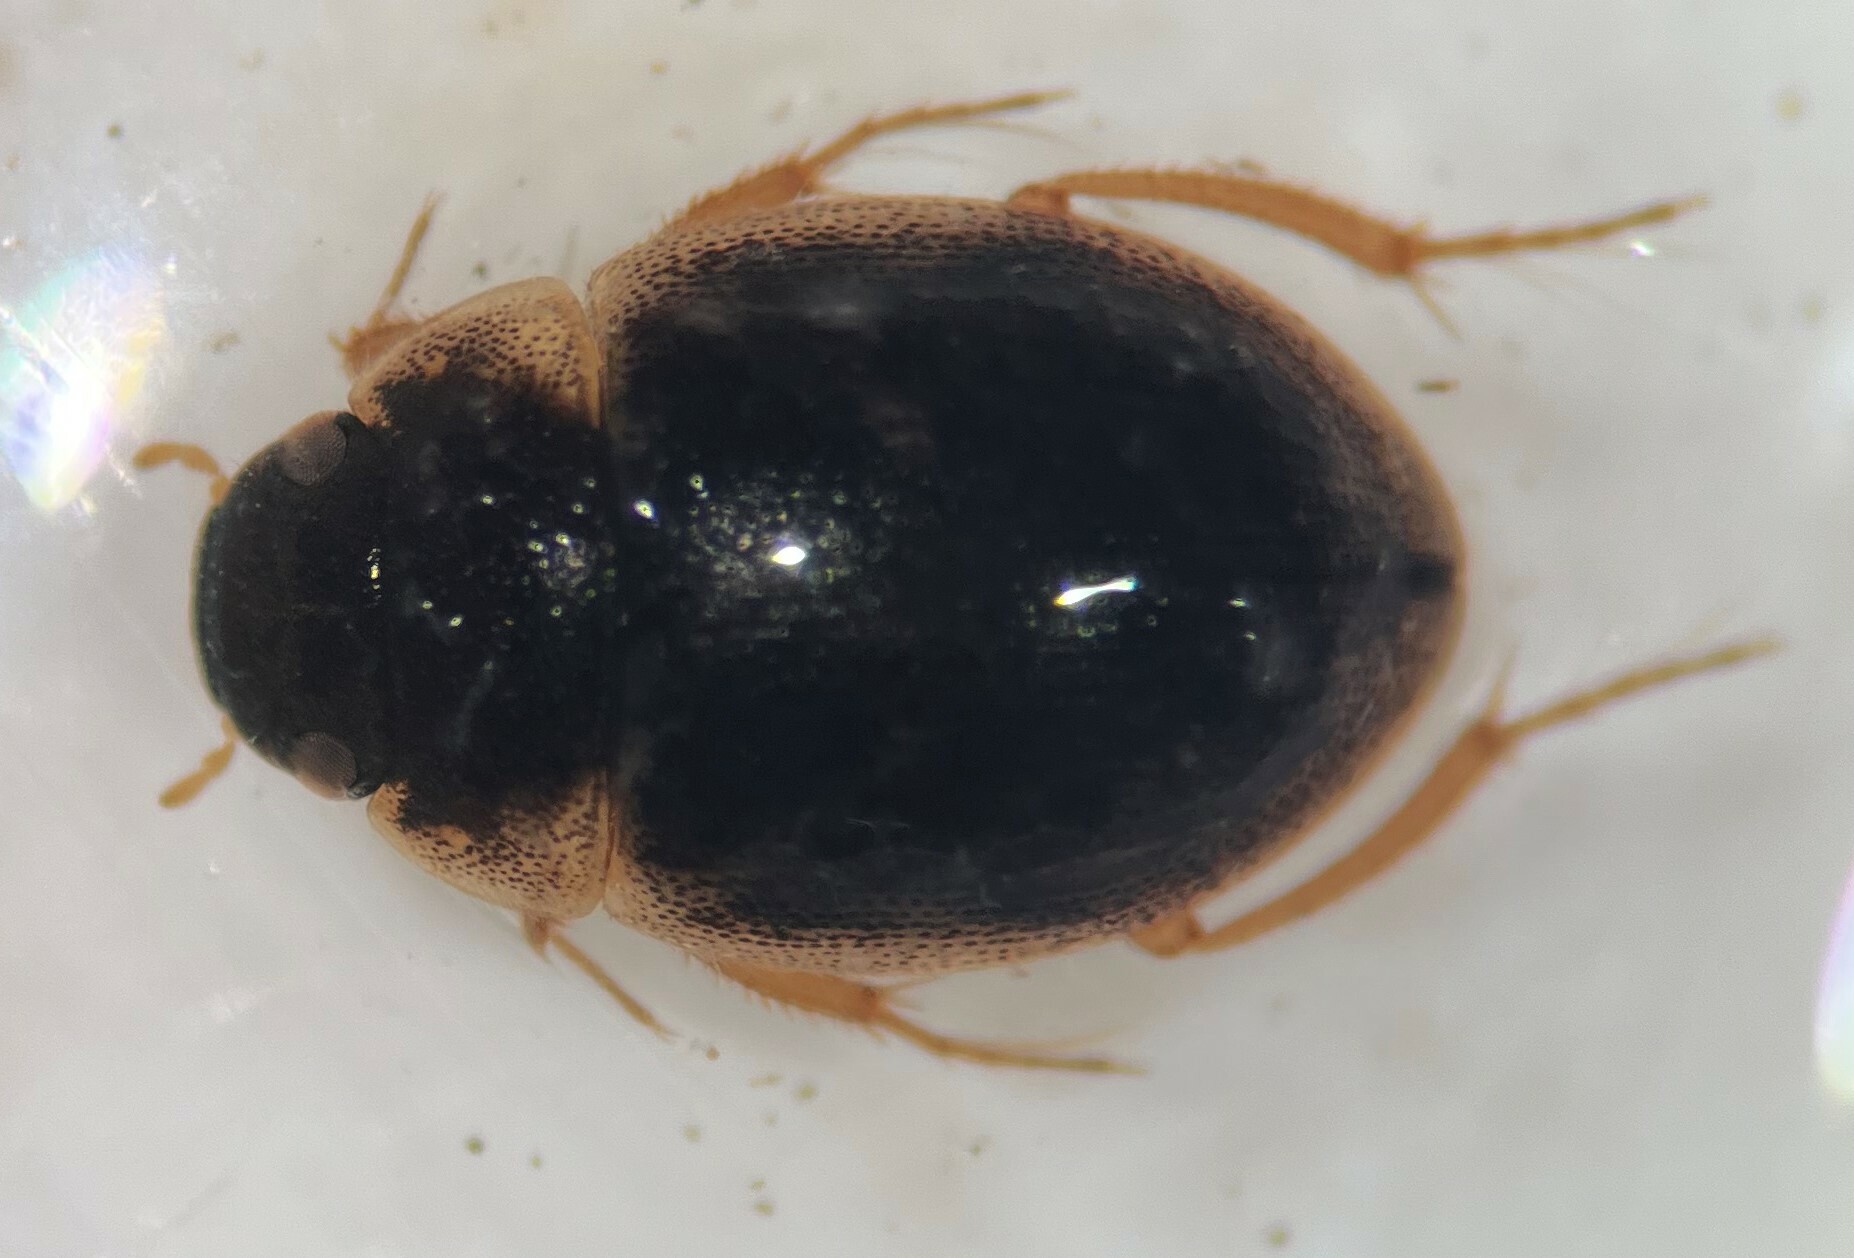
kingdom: Animalia
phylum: Arthropoda
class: Insecta
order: Coleoptera
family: Hydrophilidae
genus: Laccobius
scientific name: Laccobius agilis
